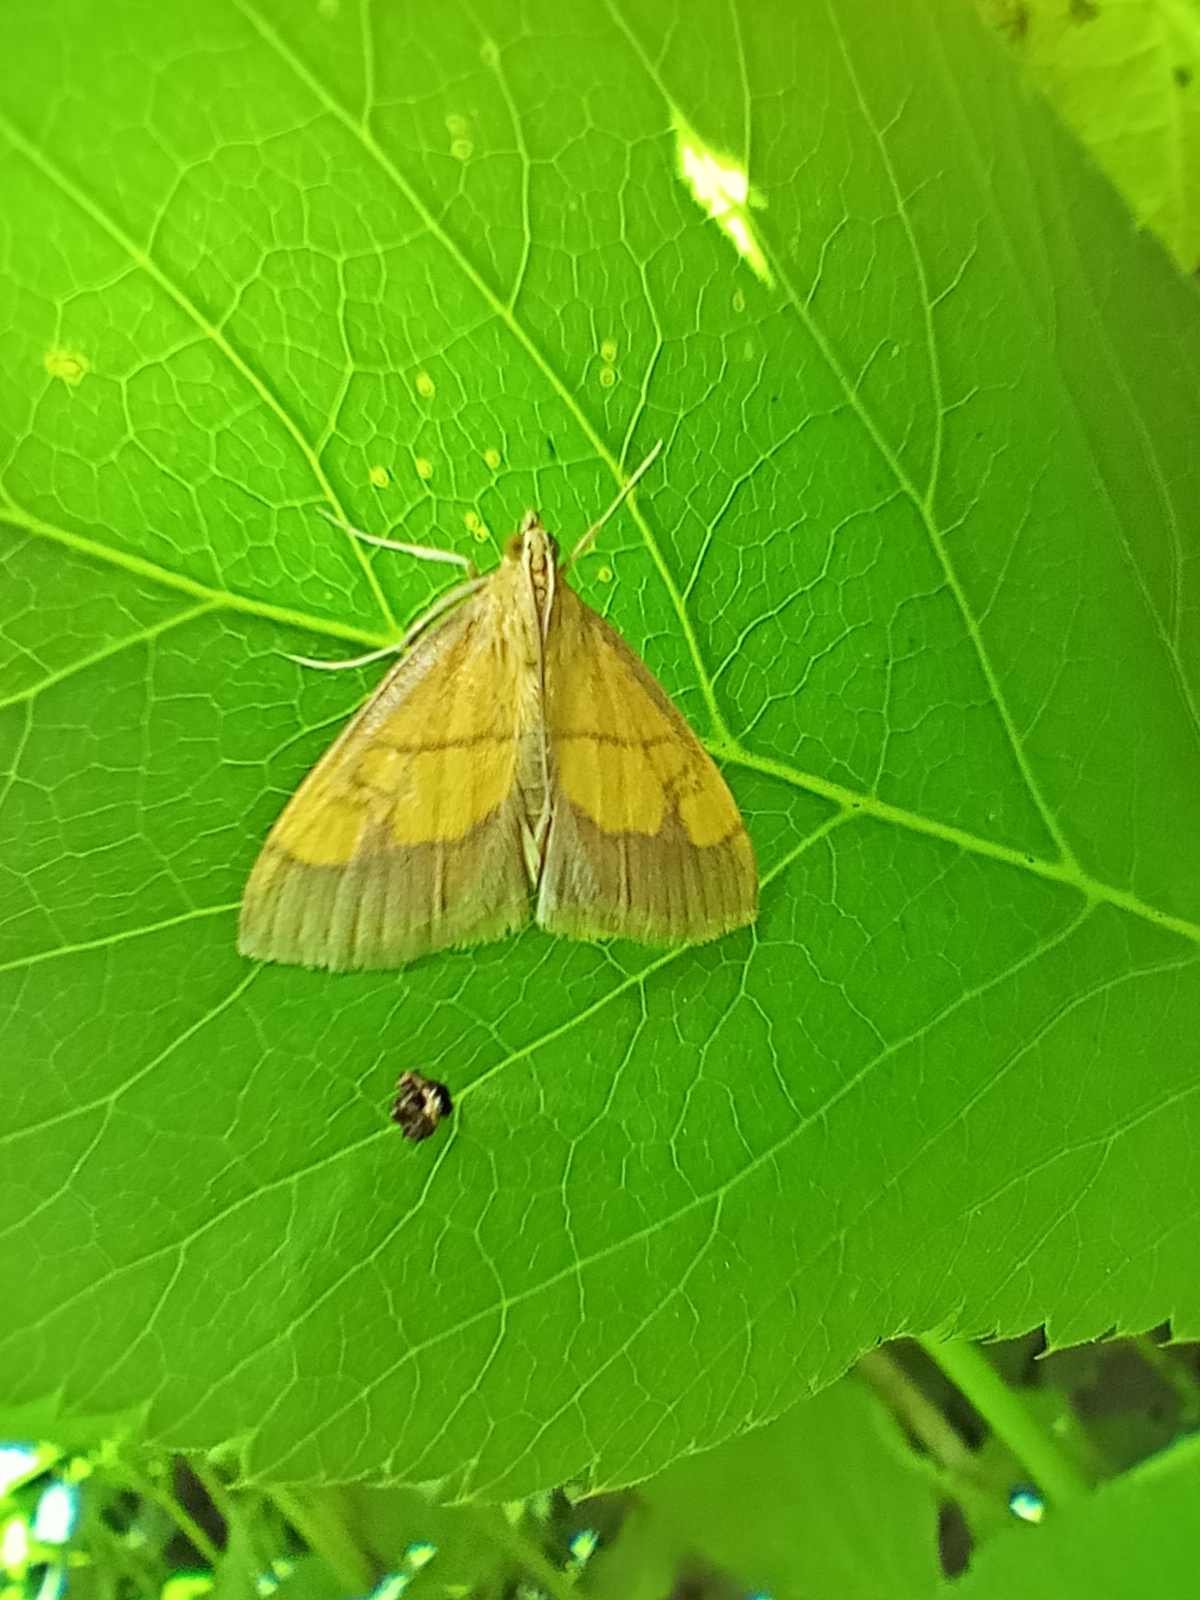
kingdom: Animalia
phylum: Arthropoda
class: Insecta
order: Lepidoptera
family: Crambidae
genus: Evergestis
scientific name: Evergestis limbata
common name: Dark bordered pearl
